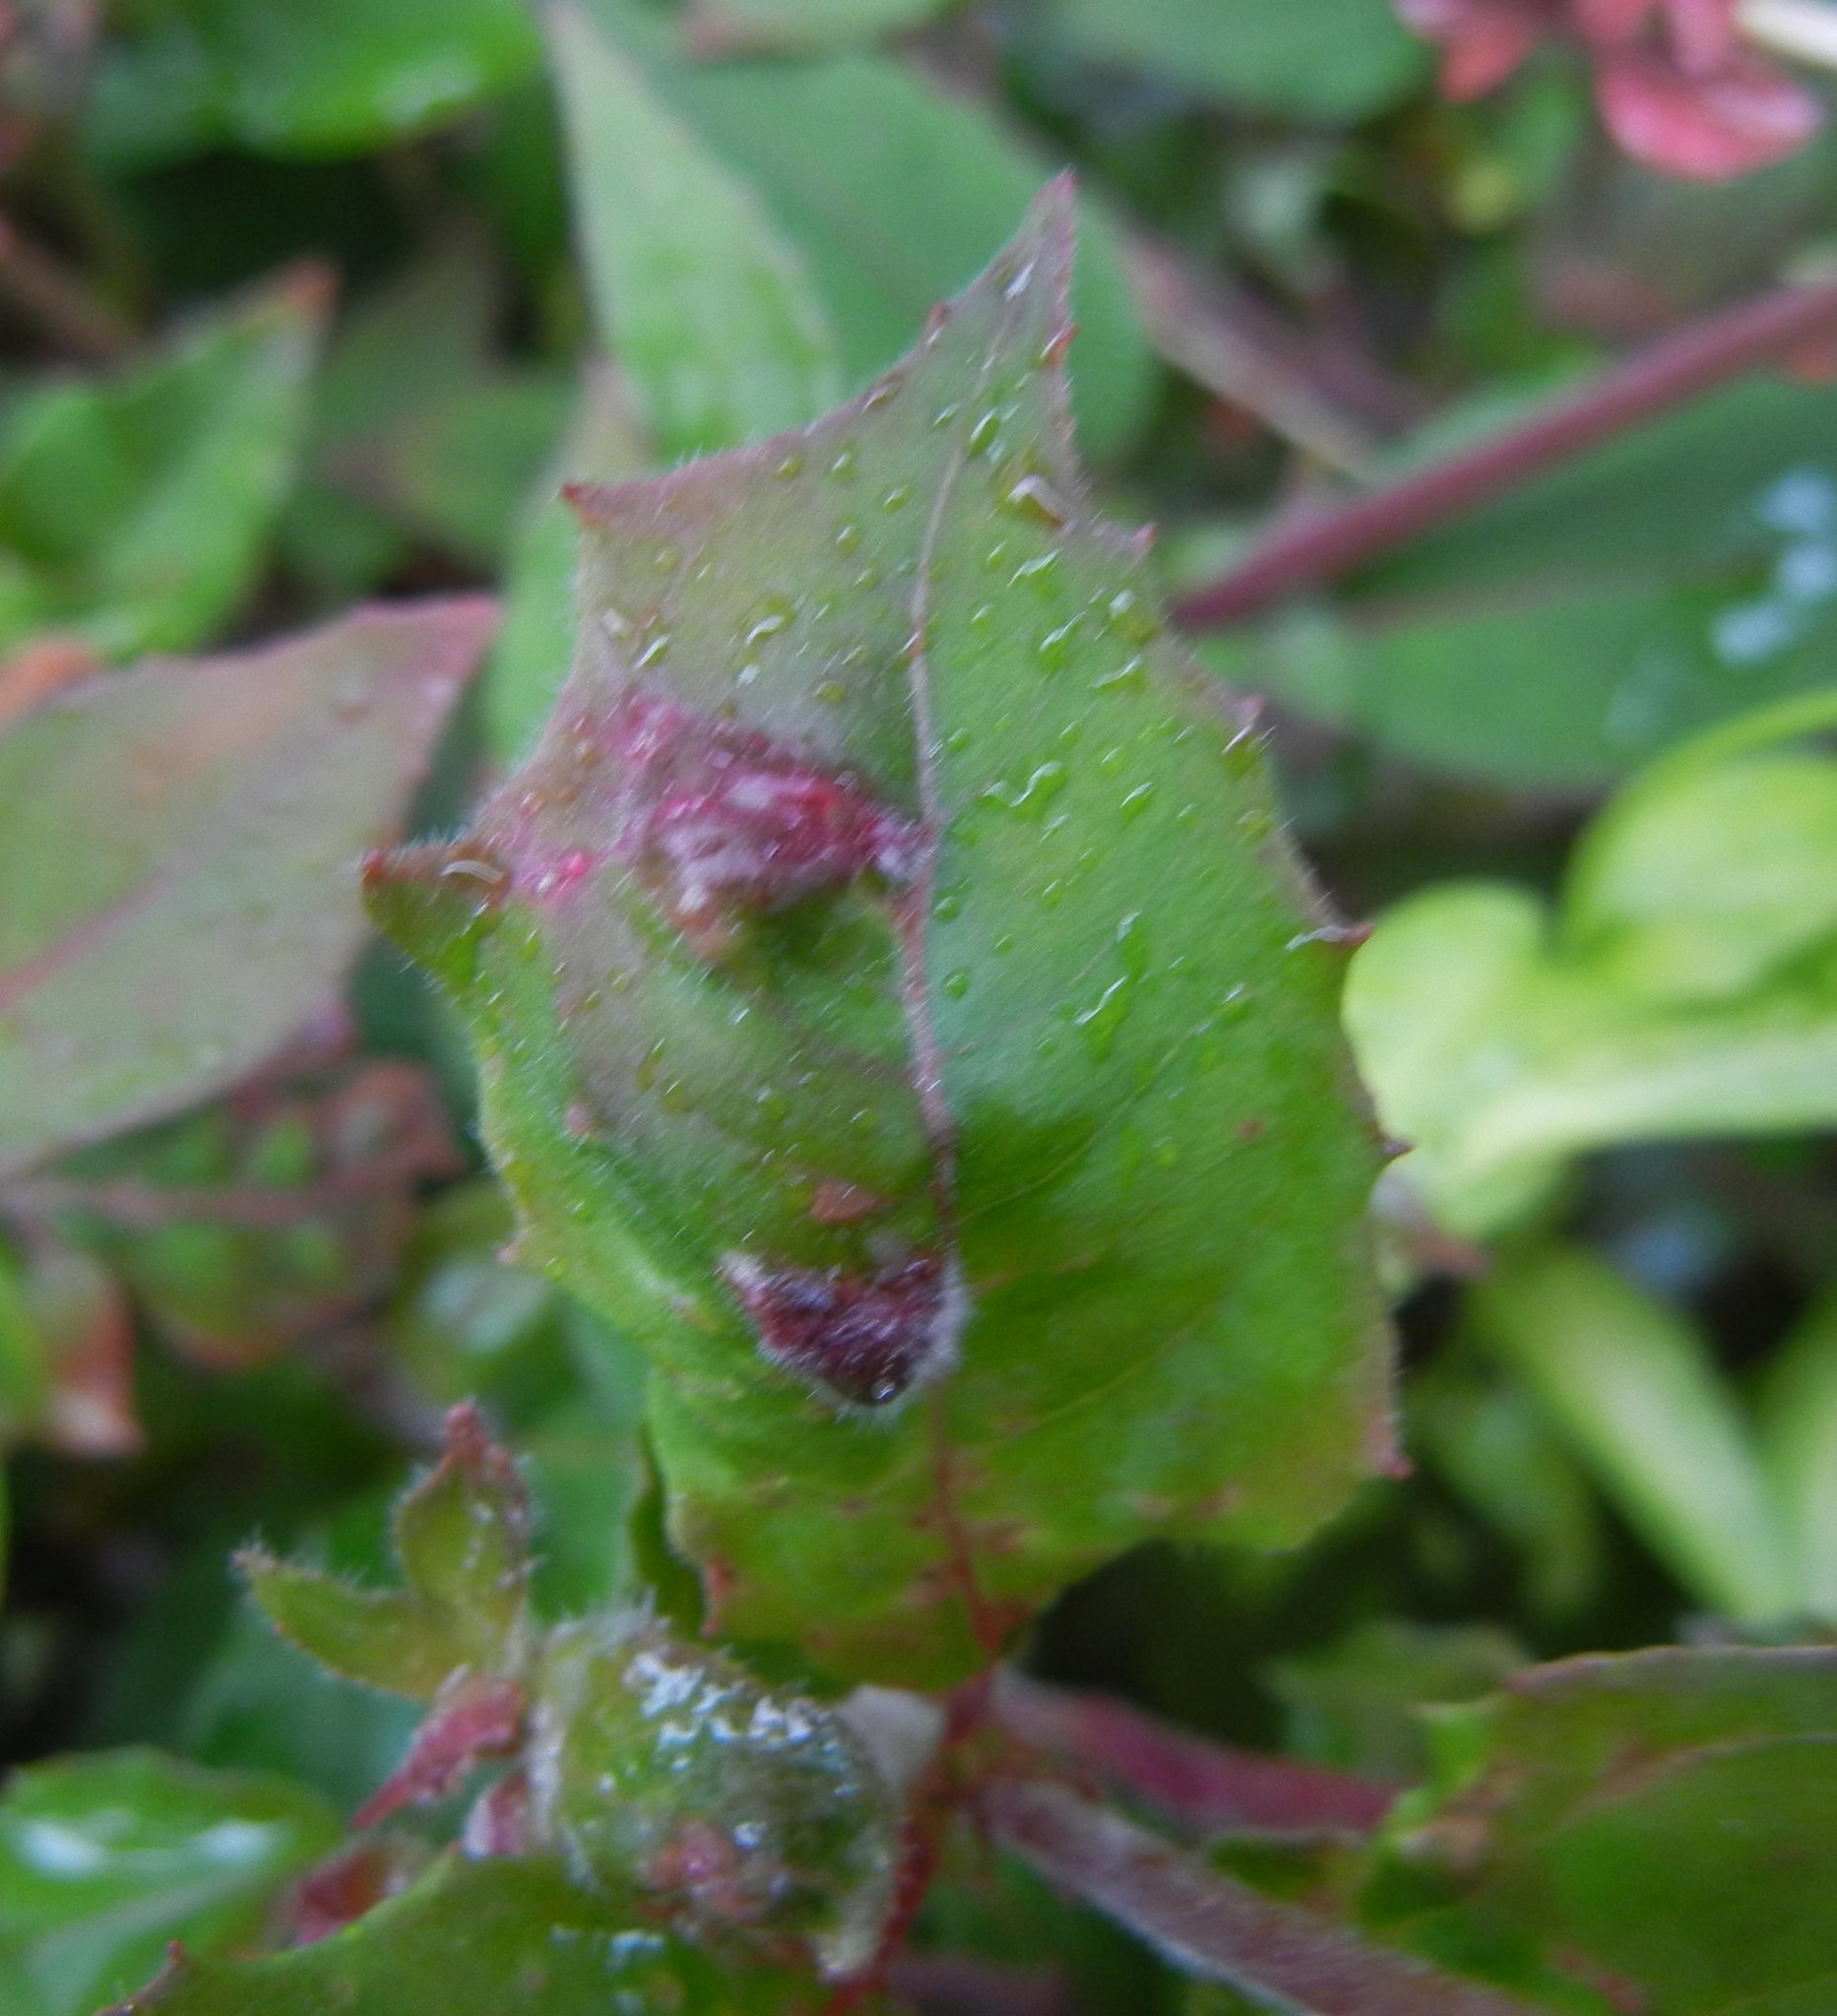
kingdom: Animalia
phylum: Arthropoda
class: Arachnida
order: Trombidiformes
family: Eriophyidae
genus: Aculops
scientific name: Aculops fuchsiae
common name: Fuchsia gall mite
